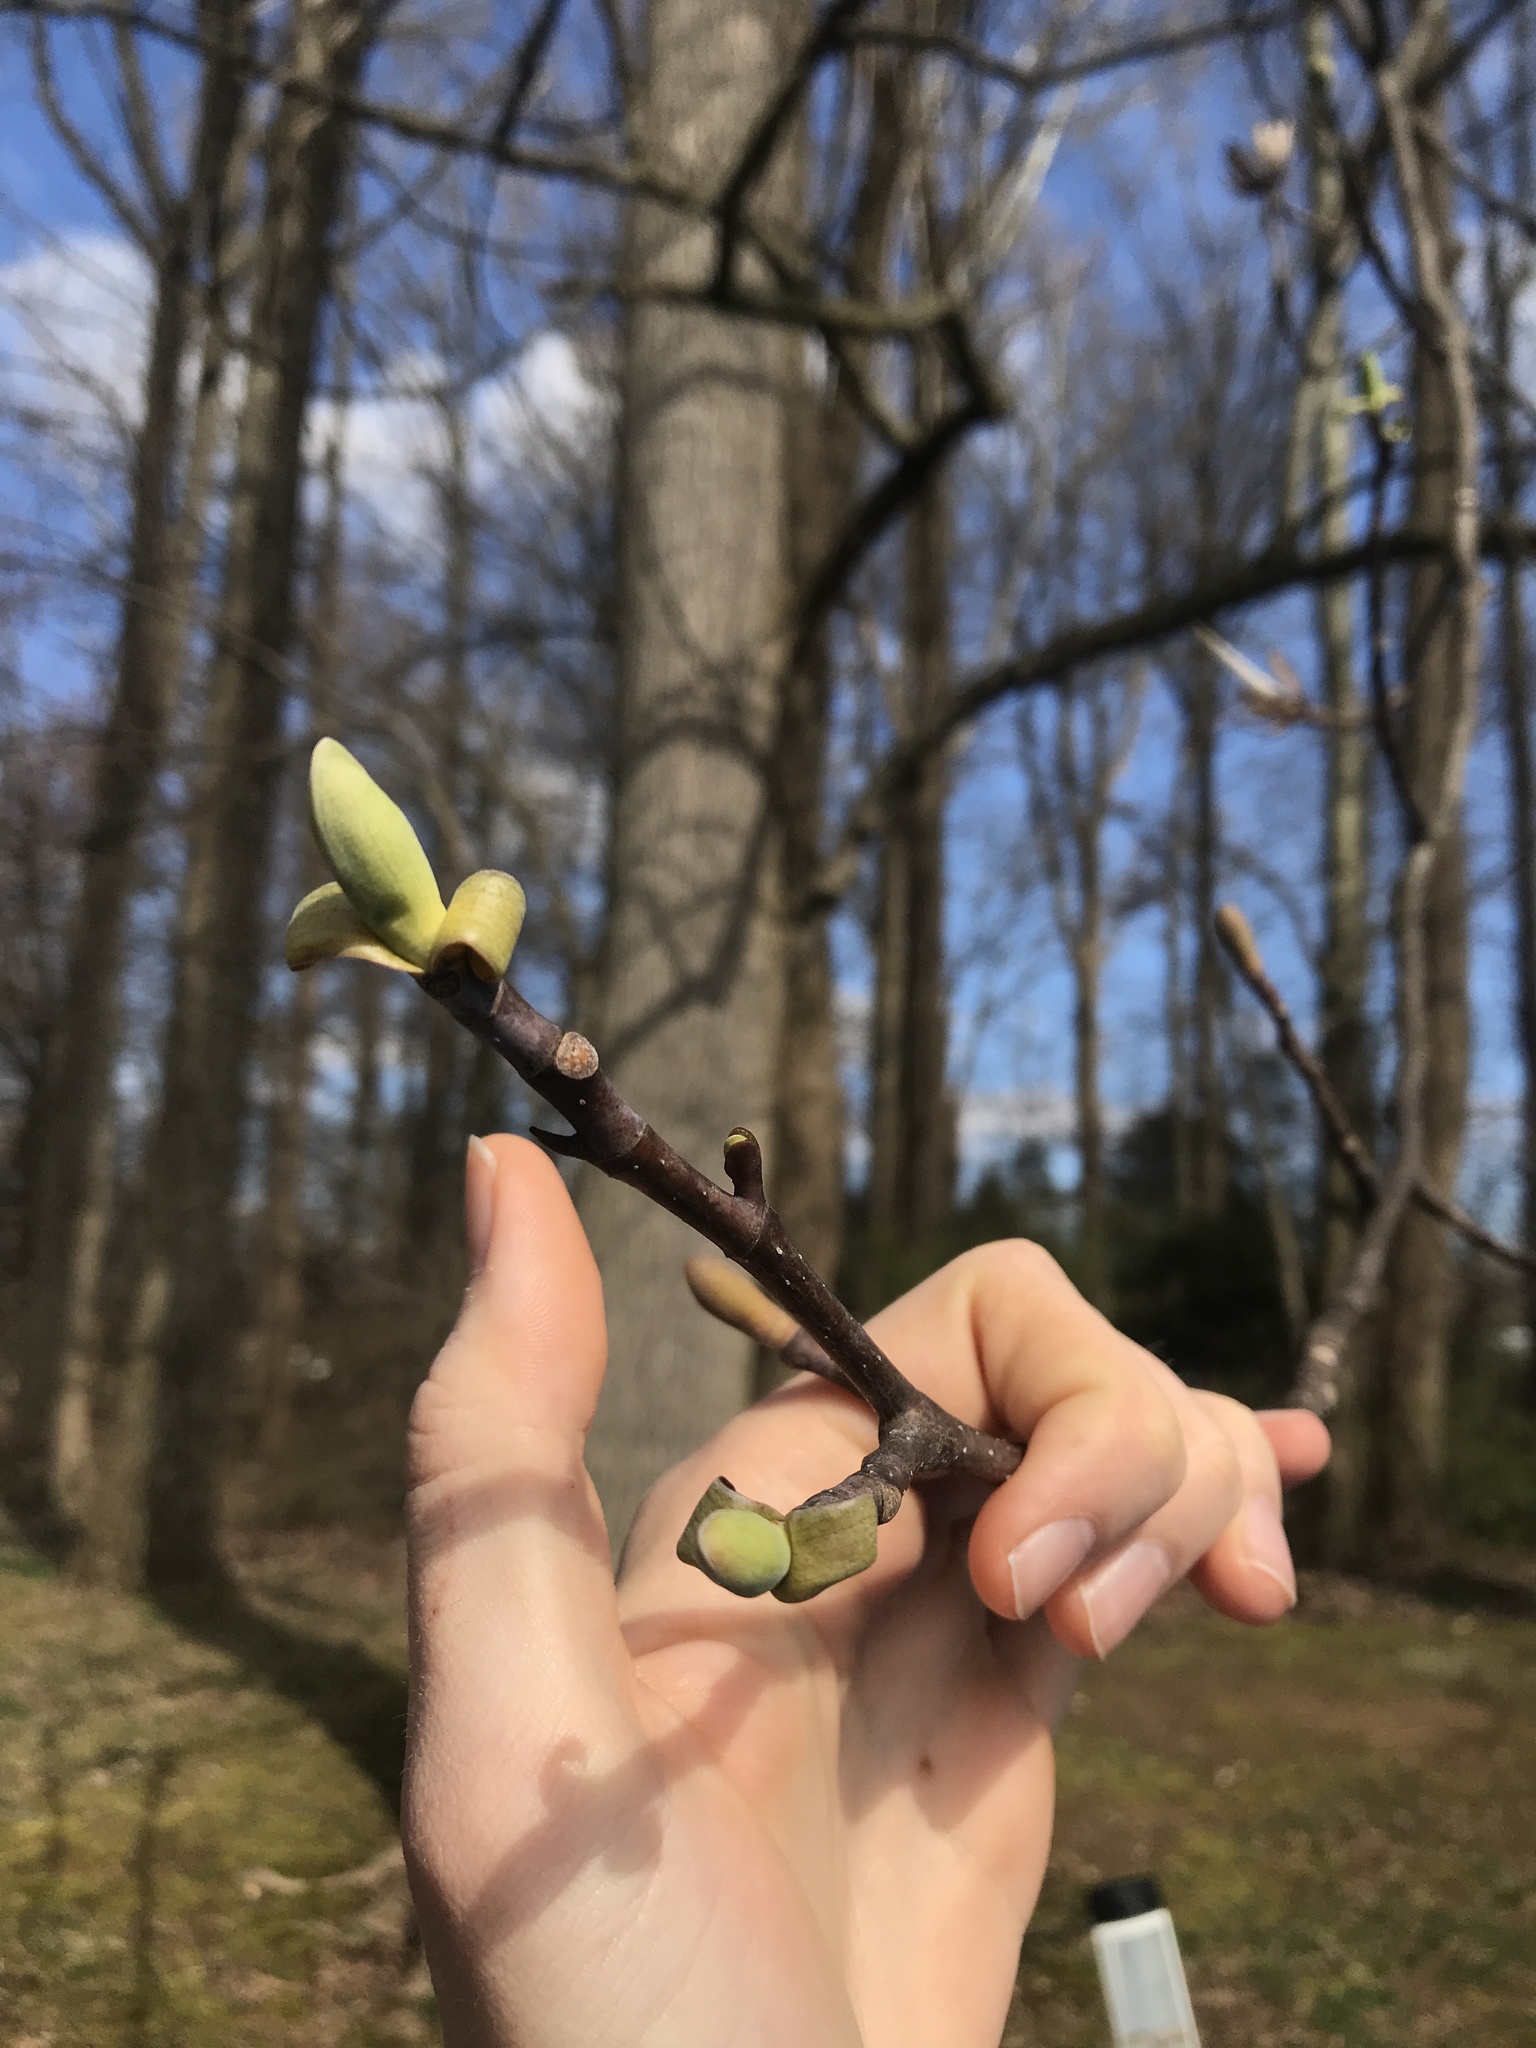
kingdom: Plantae
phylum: Tracheophyta
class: Magnoliopsida
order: Magnoliales
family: Magnoliaceae
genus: Liriodendron
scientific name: Liriodendron tulipifera
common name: Tulip tree
